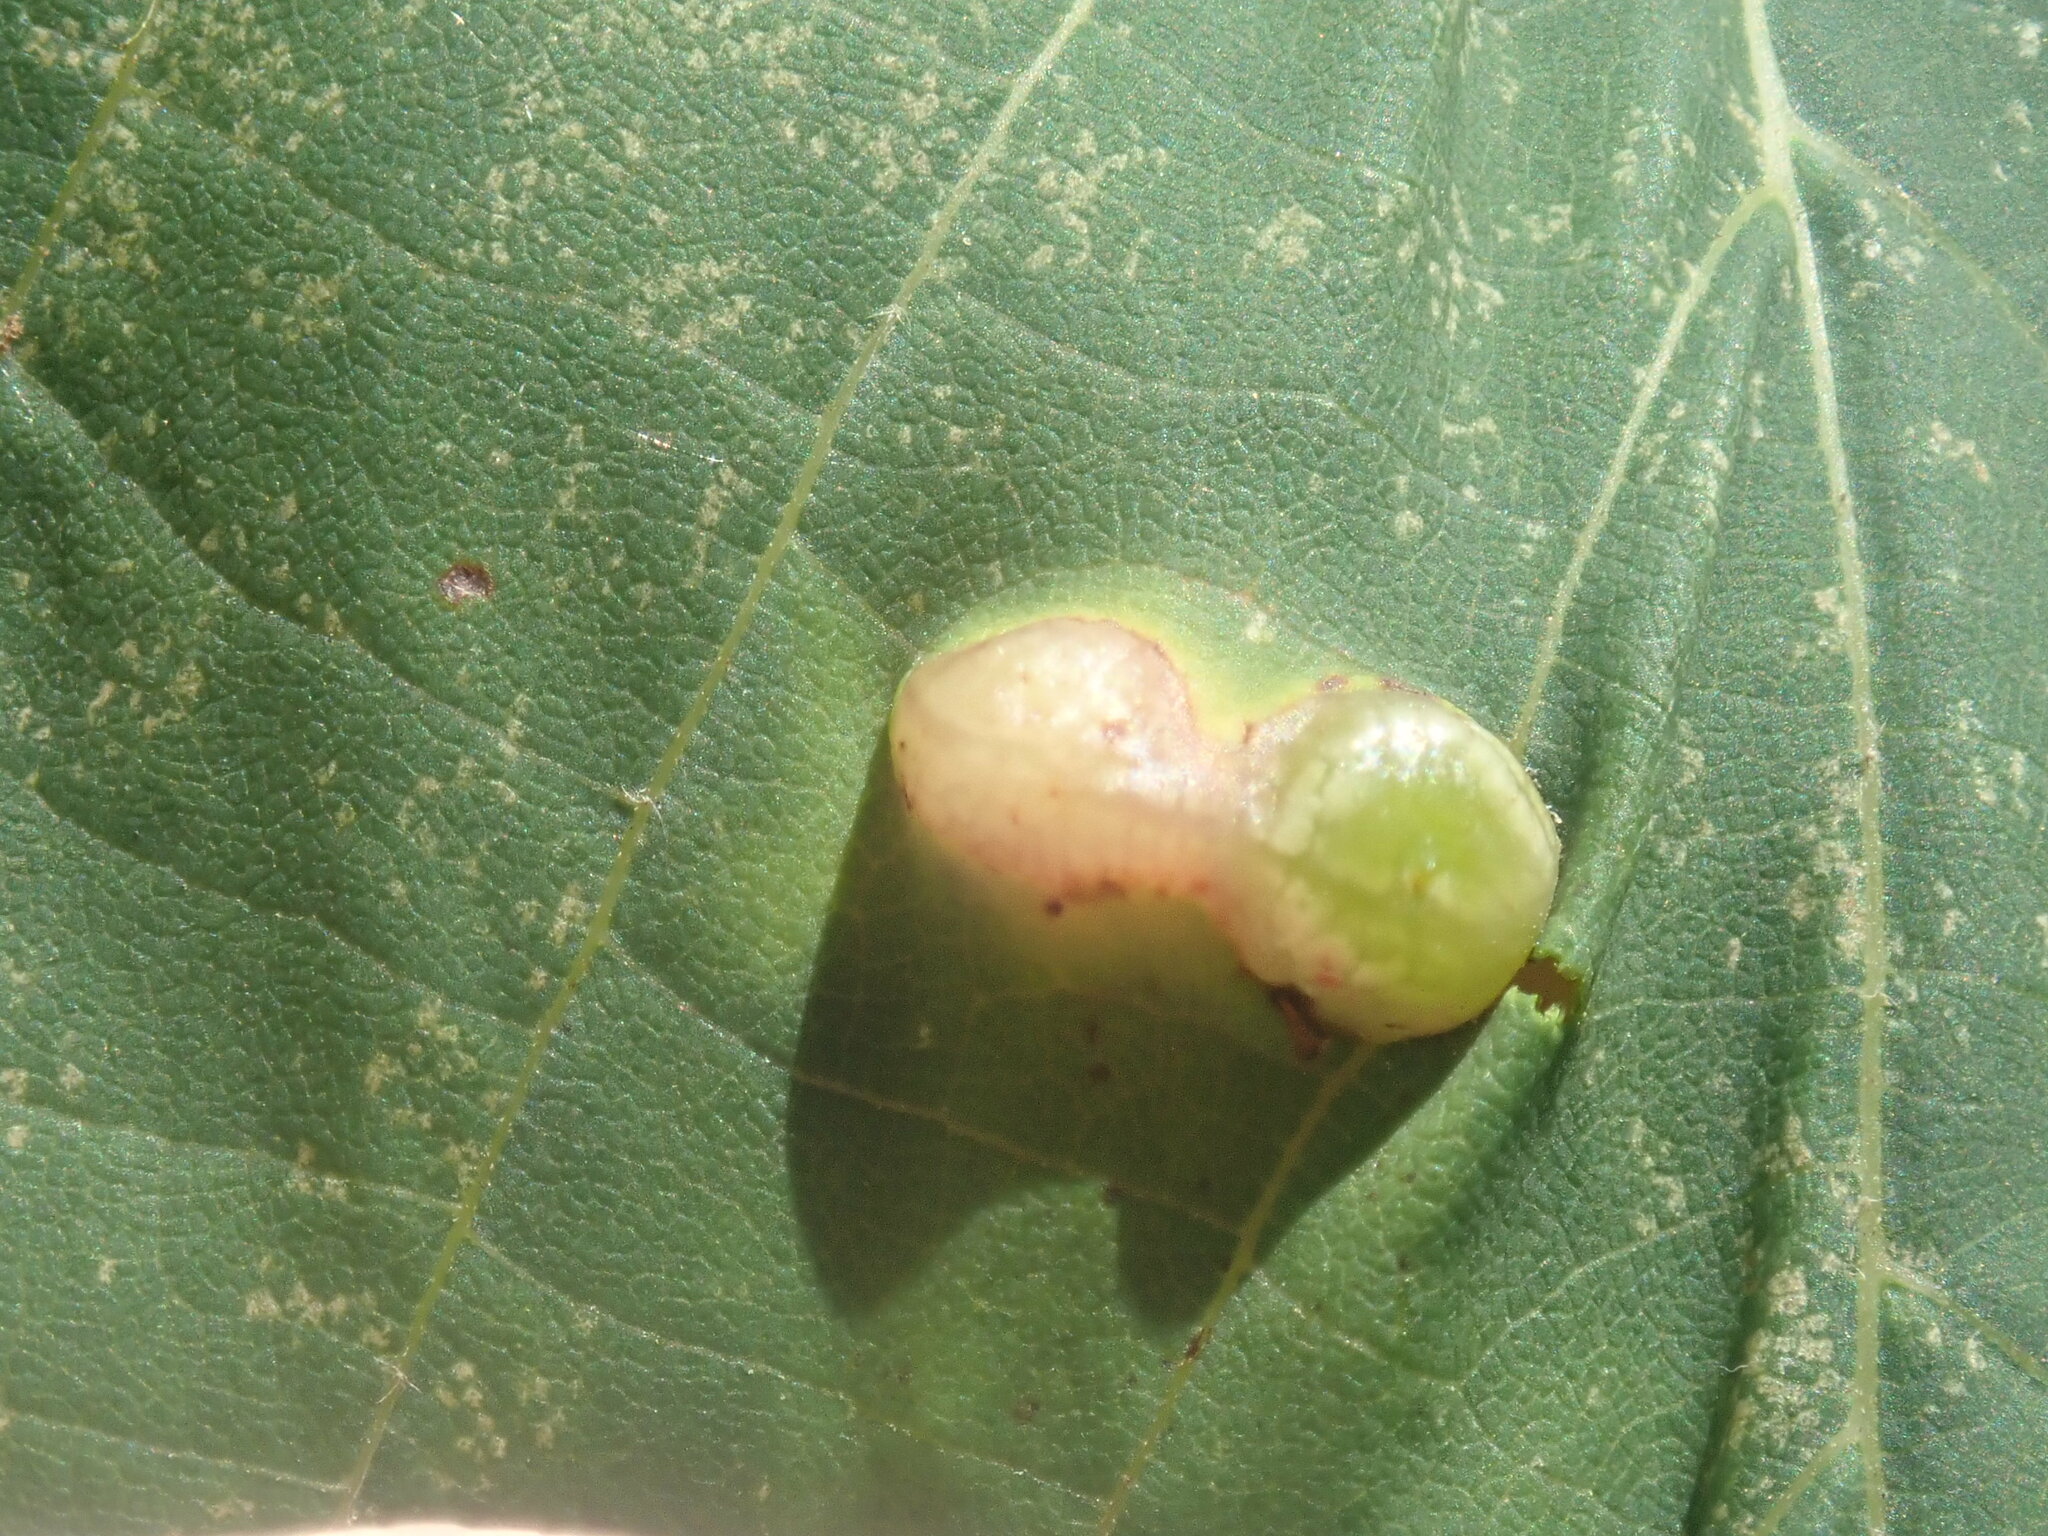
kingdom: Animalia
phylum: Arthropoda
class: Insecta
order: Diptera
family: Cecidomyiidae
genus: Contarinia
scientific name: Contarinia verrucicola
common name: Linden wart gall midge
